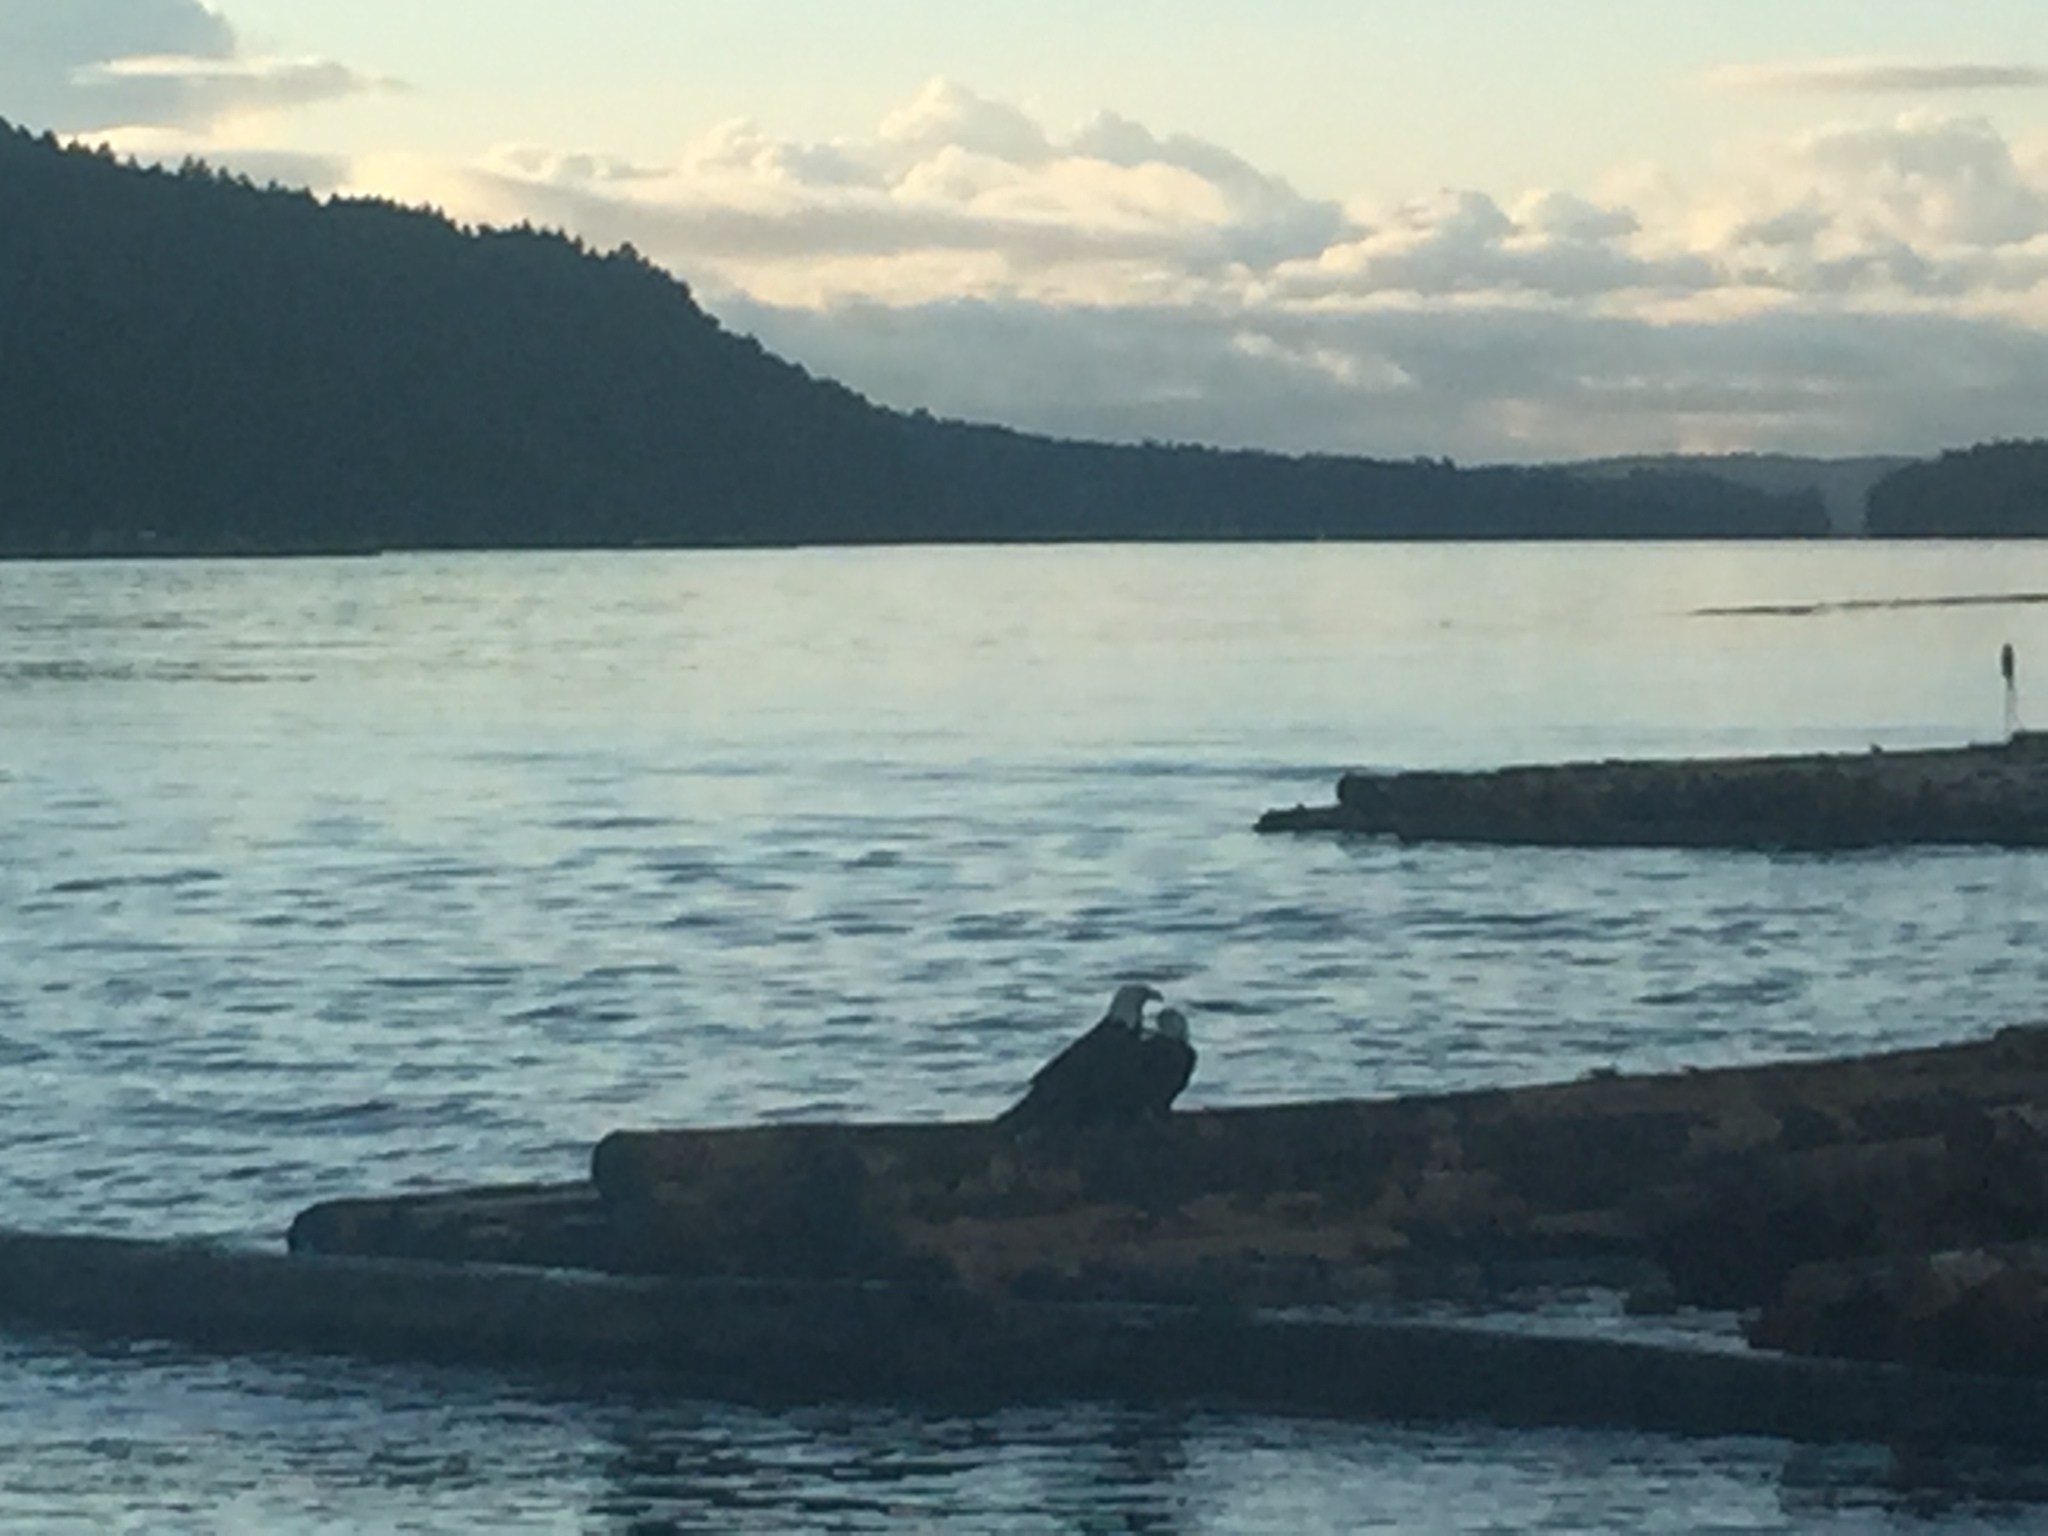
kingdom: Animalia
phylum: Chordata
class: Aves
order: Accipitriformes
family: Accipitridae
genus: Haliaeetus
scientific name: Haliaeetus leucocephalus
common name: Bald eagle
